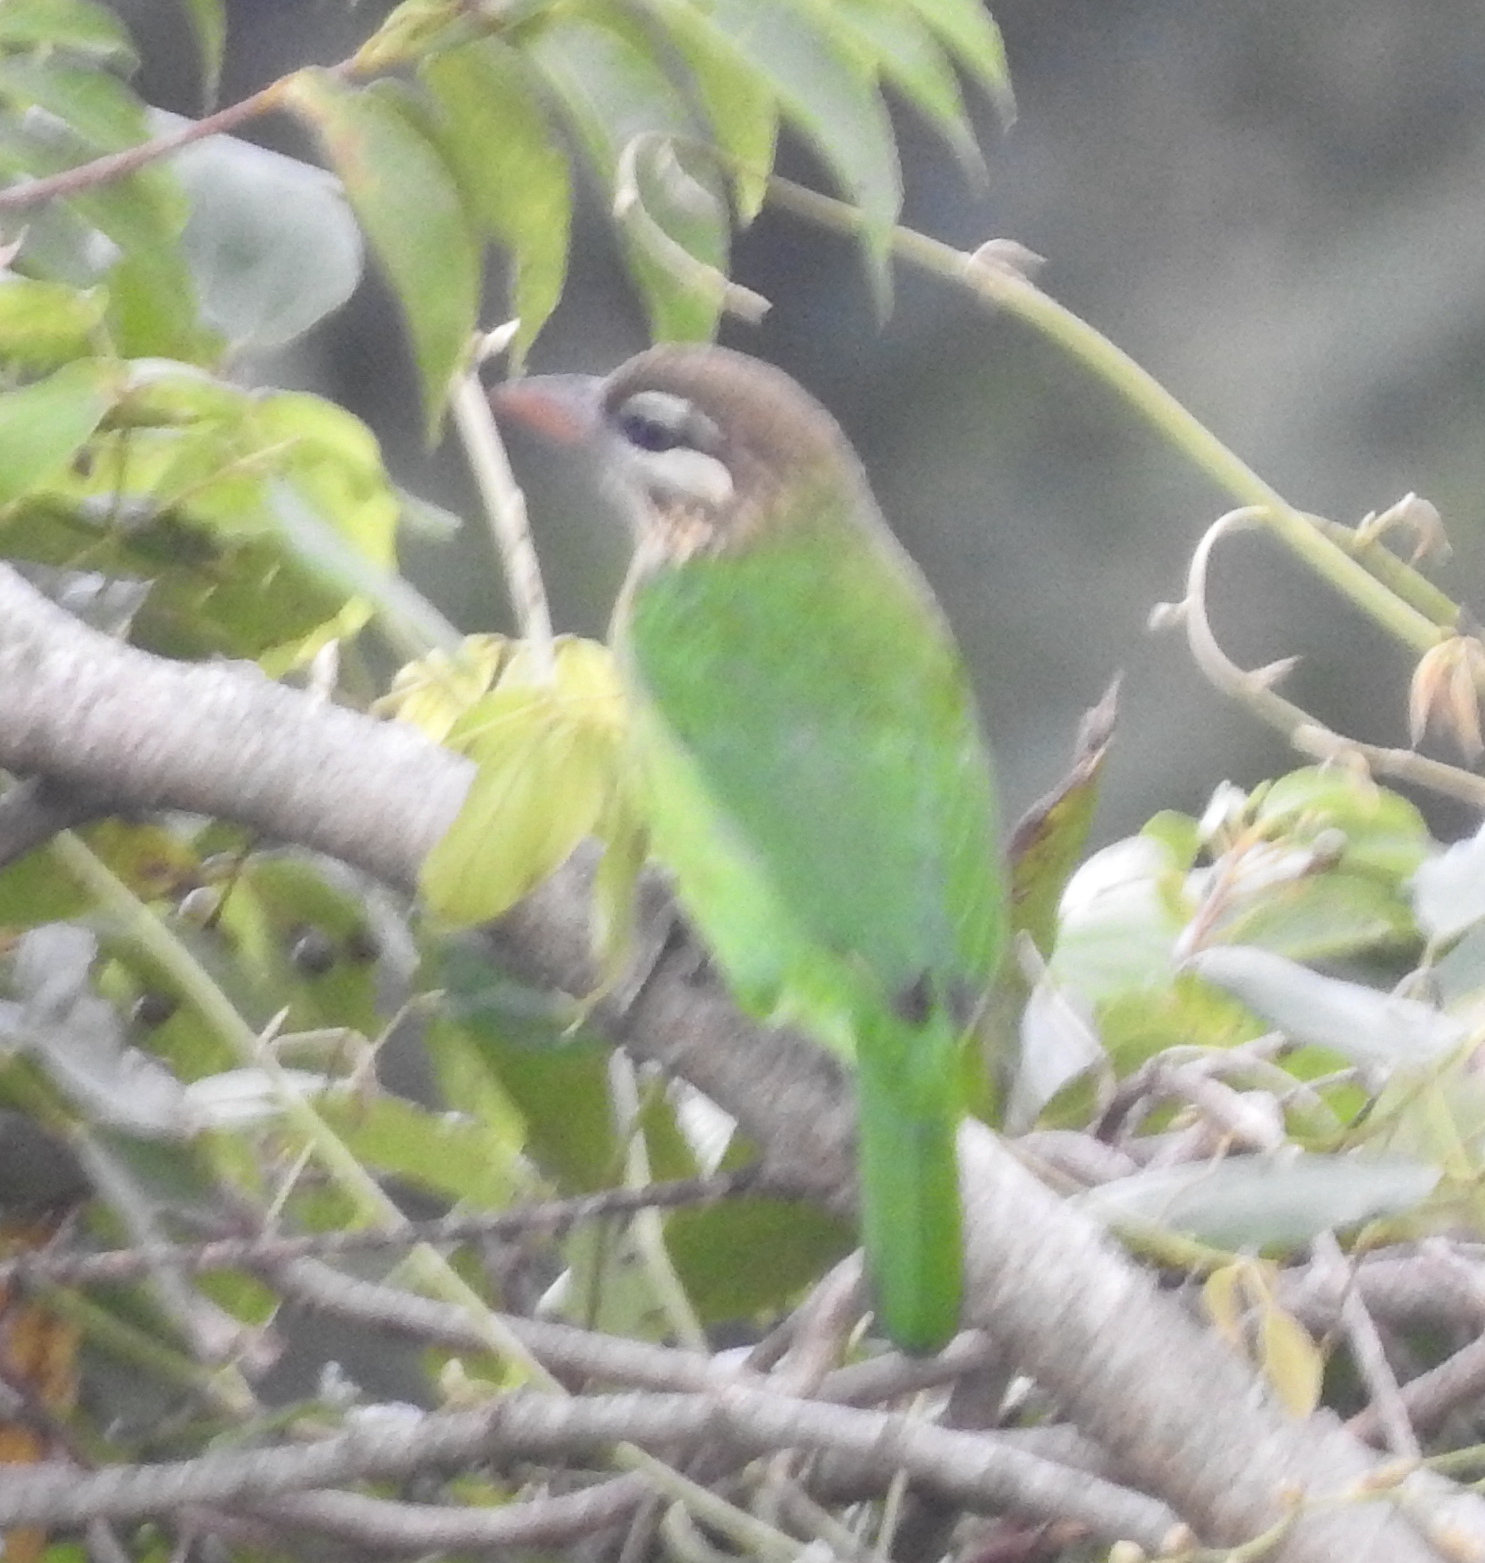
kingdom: Animalia
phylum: Chordata
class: Aves
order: Piciformes
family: Megalaimidae
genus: Psilopogon
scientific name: Psilopogon viridis
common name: White-cheeked barbet
